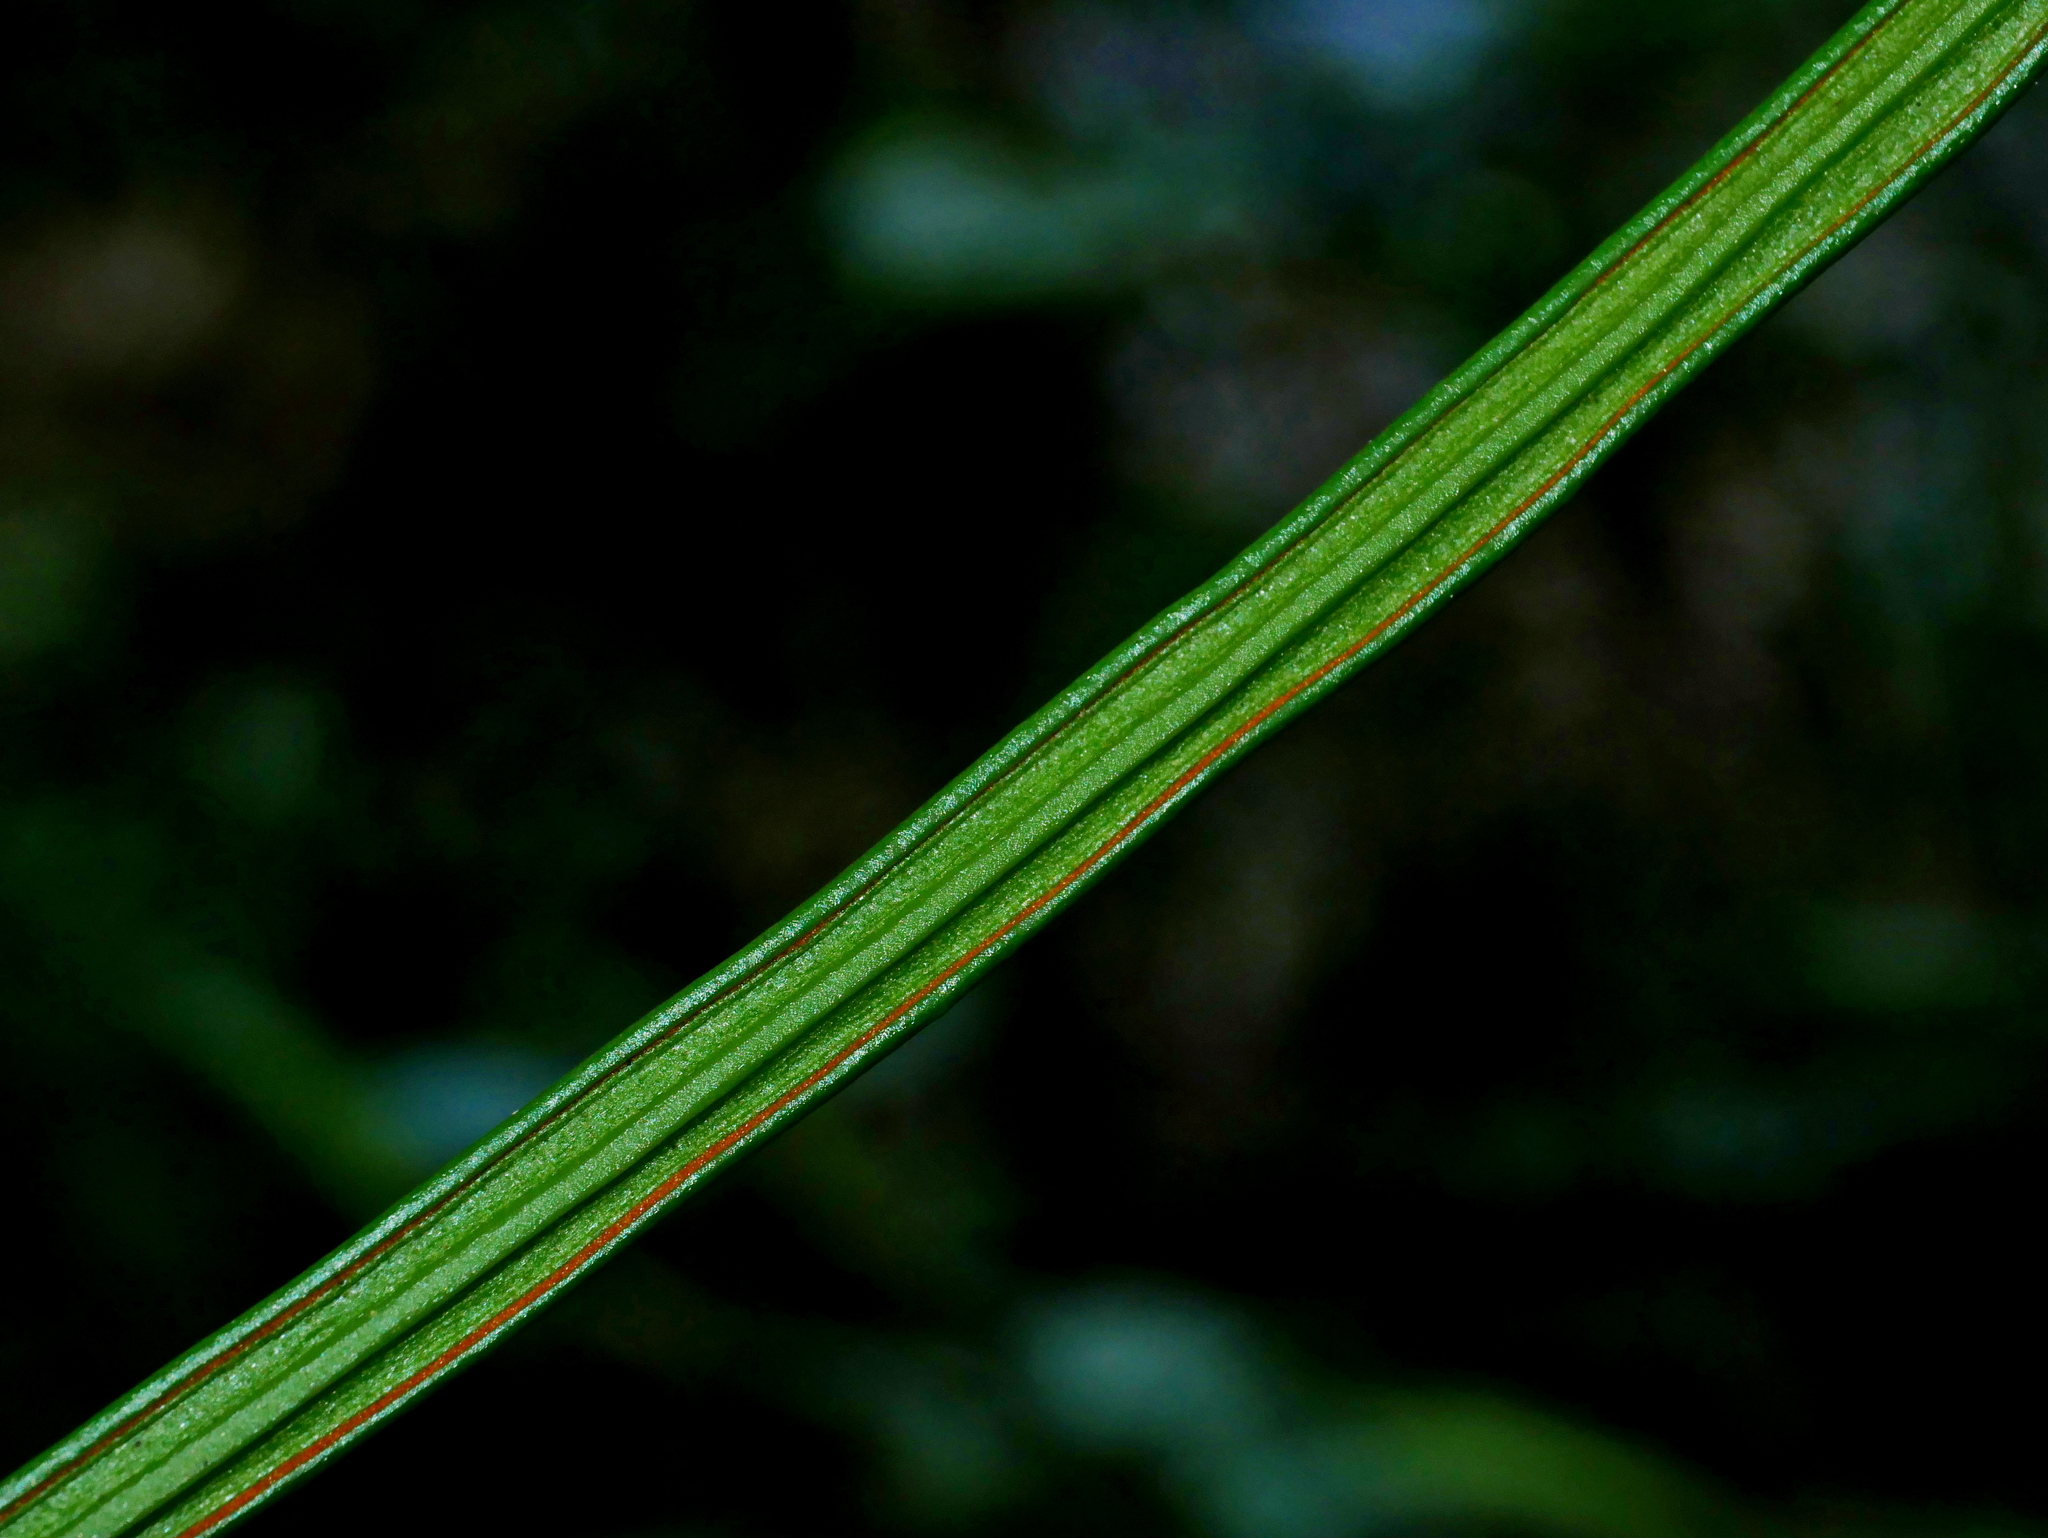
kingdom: Plantae
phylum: Tracheophyta
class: Polypodiopsida
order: Polypodiales
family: Pteridaceae
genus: Haplopteris
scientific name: Haplopteris flexuosa
